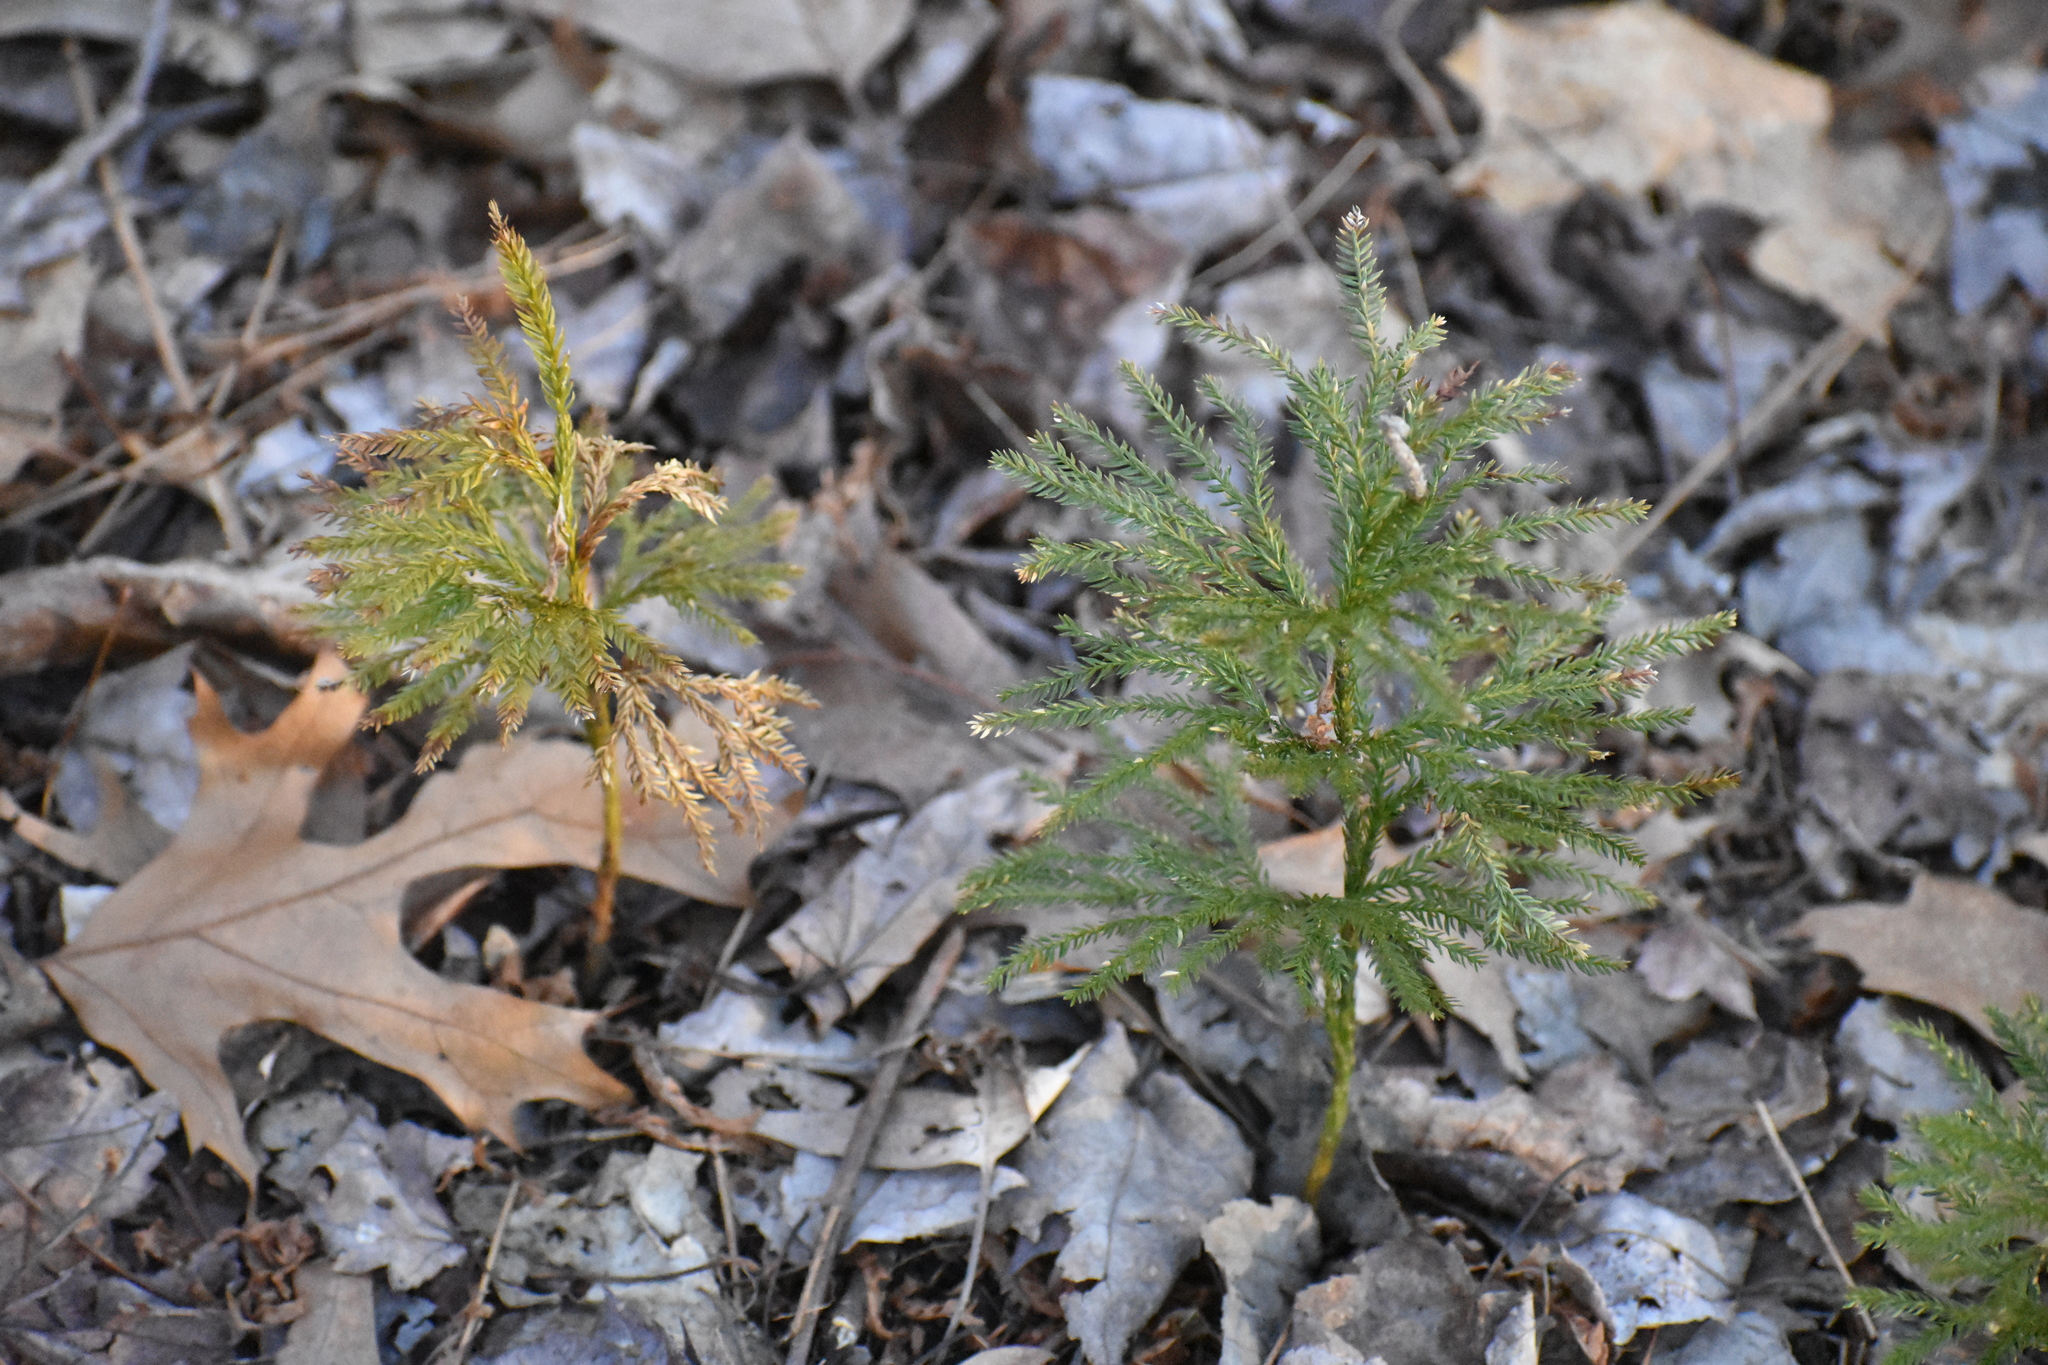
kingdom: Plantae
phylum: Tracheophyta
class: Lycopodiopsida
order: Lycopodiales
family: Lycopodiaceae
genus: Dendrolycopodium
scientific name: Dendrolycopodium obscurum
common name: Common ground-pine
